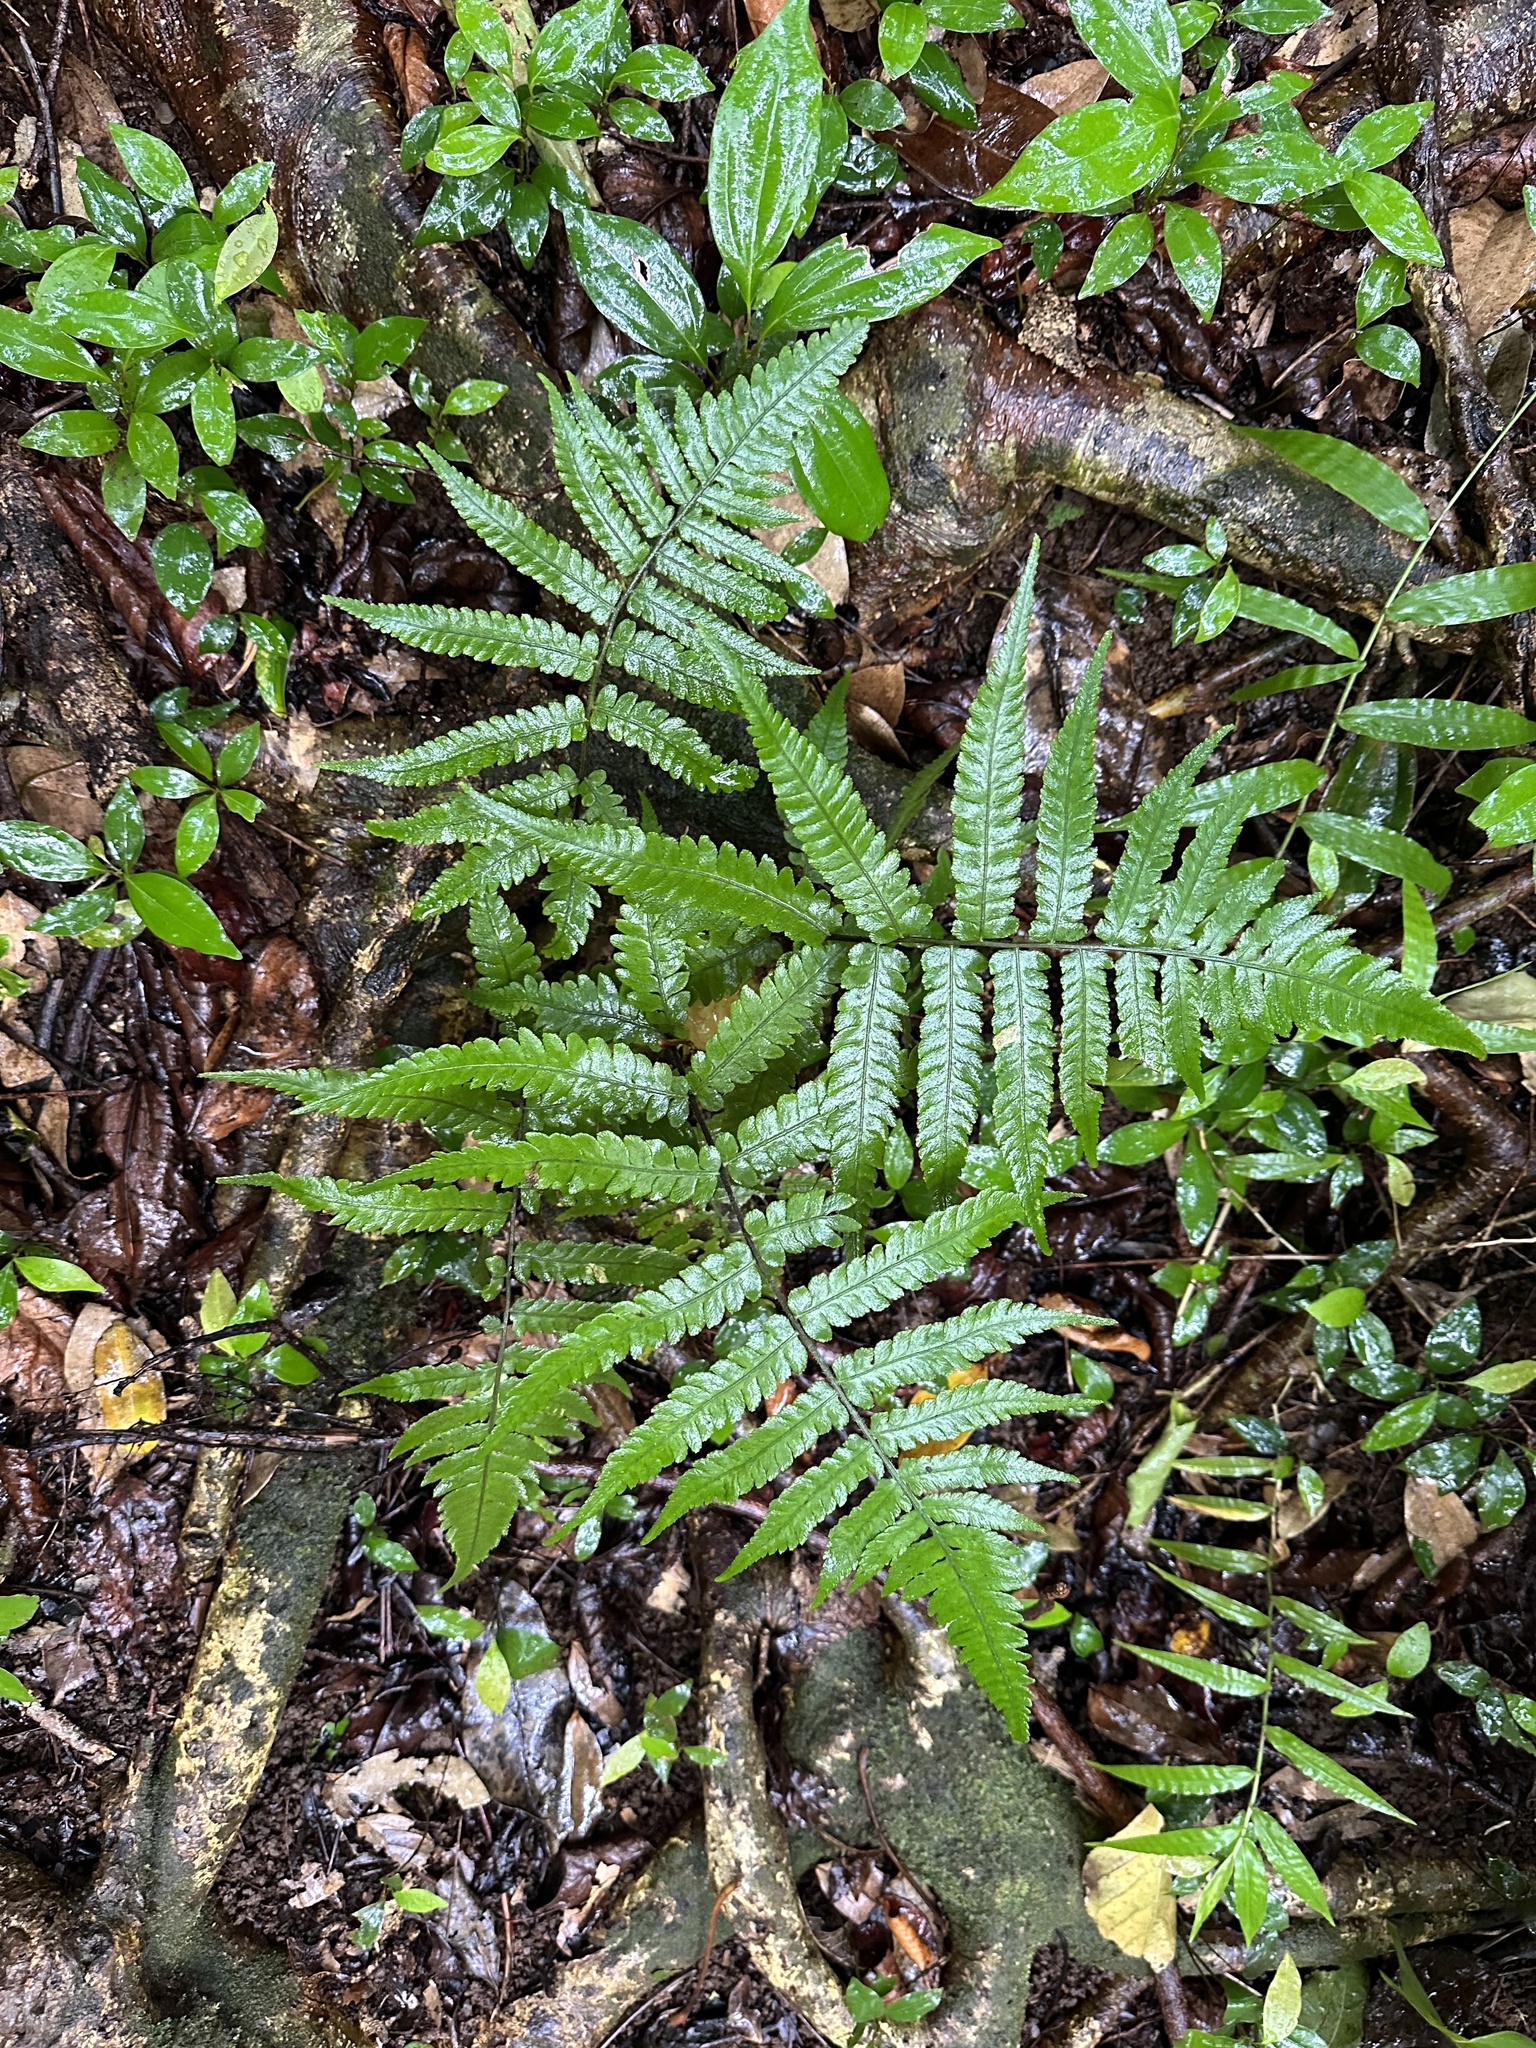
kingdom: Plantae
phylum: Tracheophyta
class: Polypodiopsida
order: Polypodiales
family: Athyriaceae
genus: Deparia
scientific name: Deparia petersenii
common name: Japanese false spleenwort
